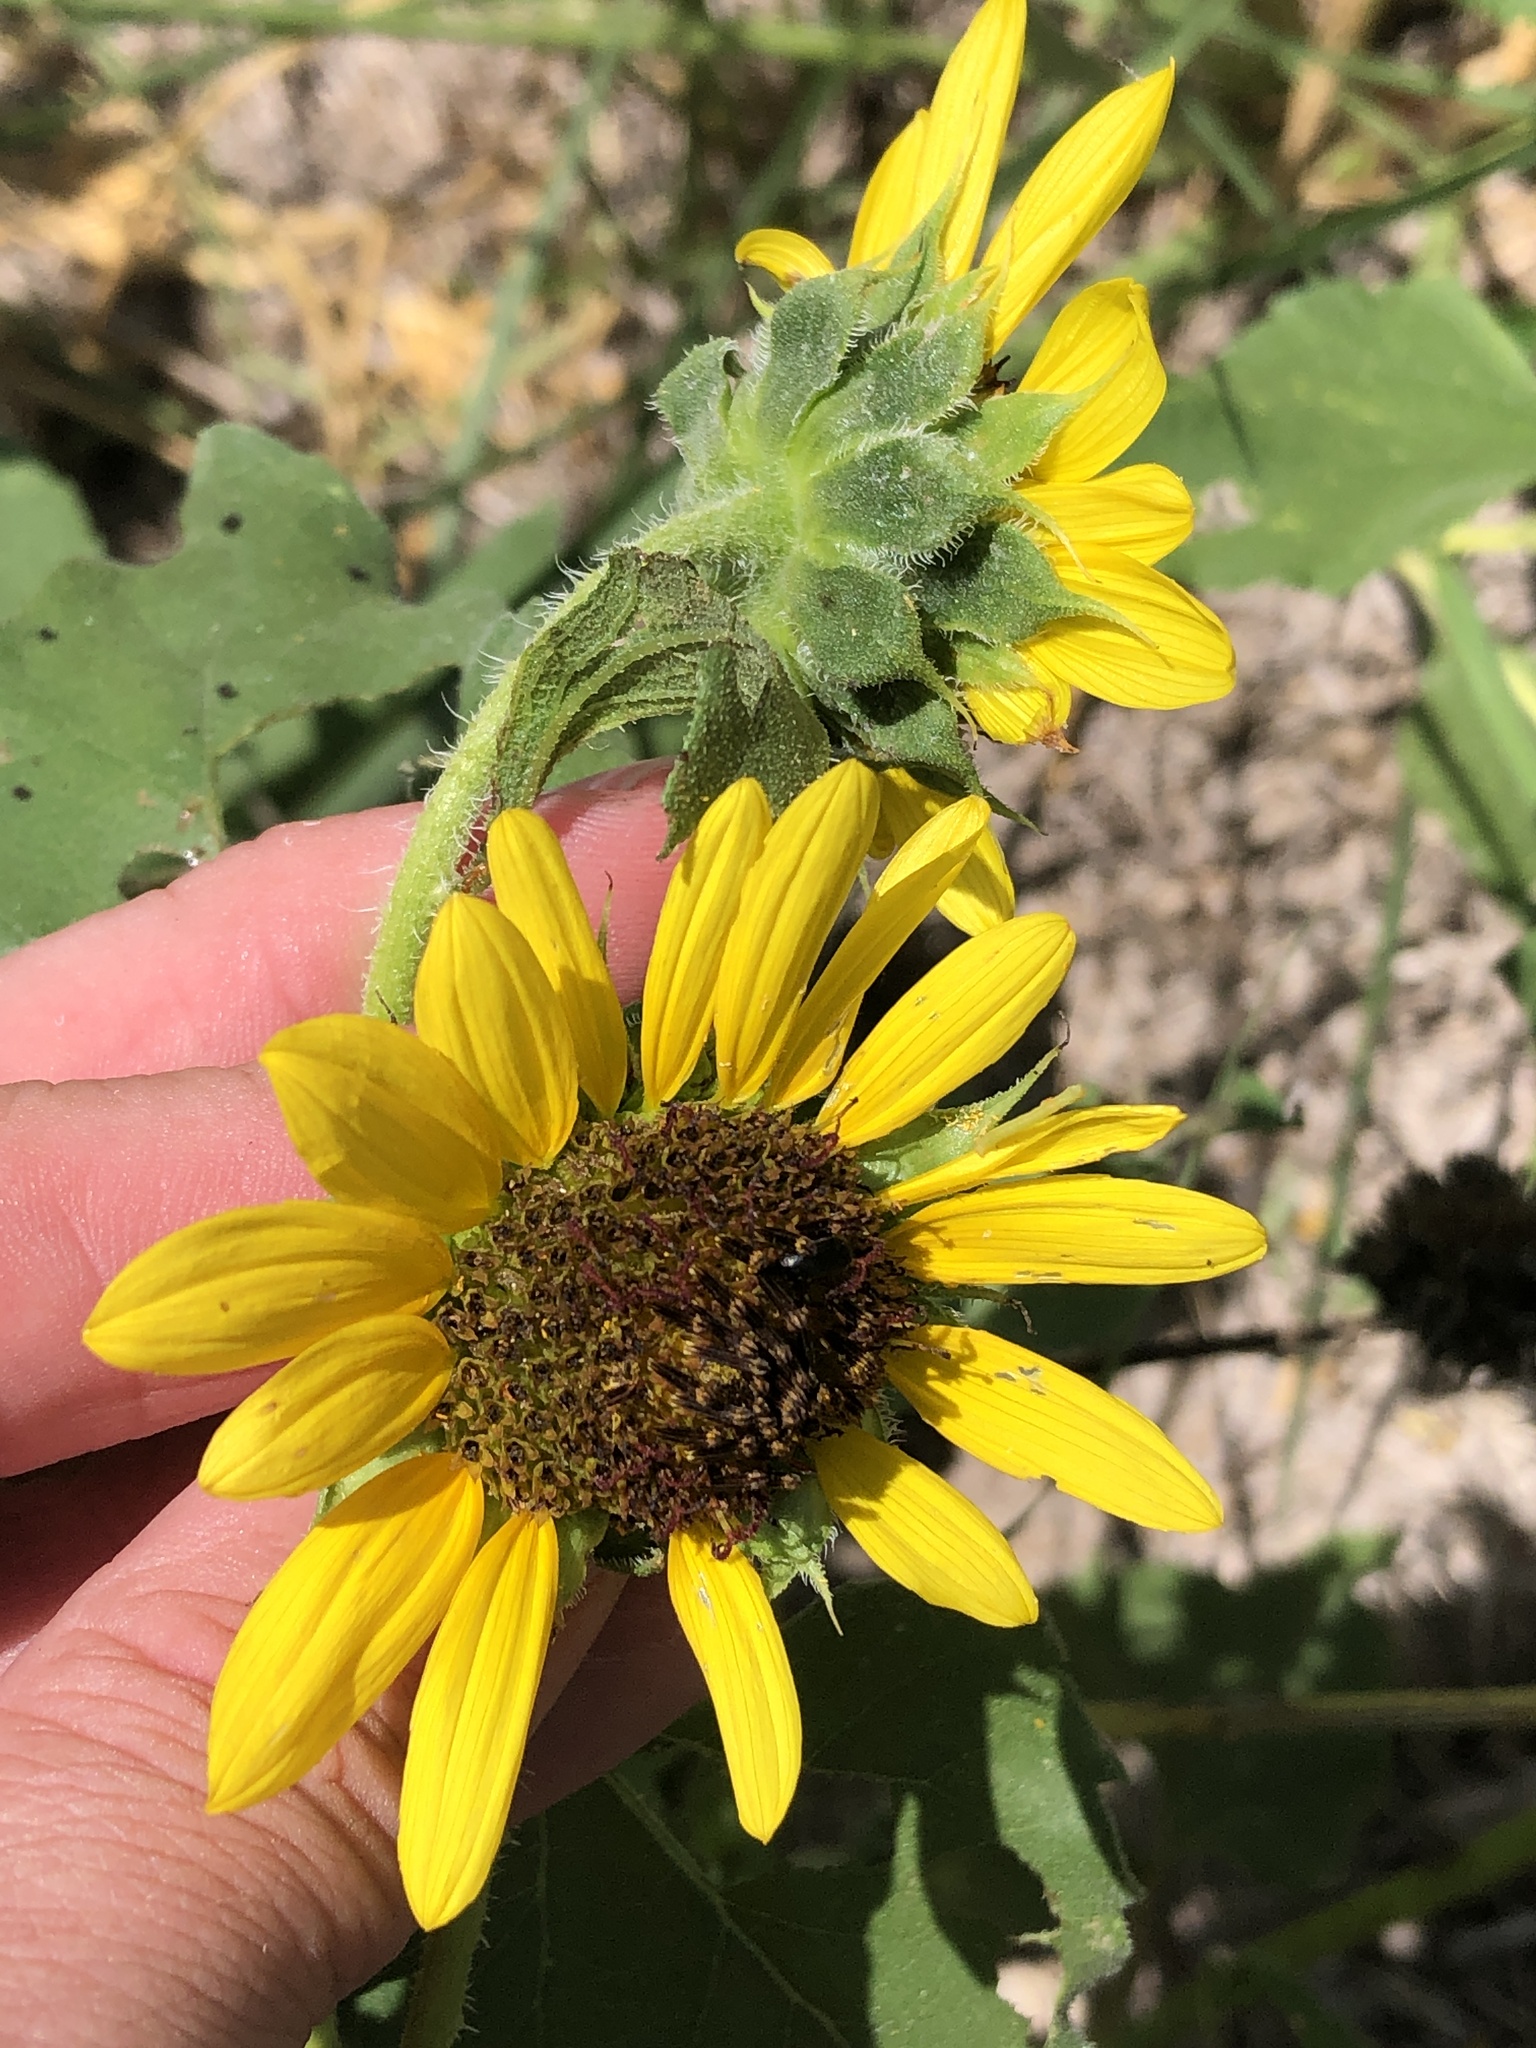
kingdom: Plantae
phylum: Tracheophyta
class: Magnoliopsida
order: Asterales
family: Asteraceae
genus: Helianthus
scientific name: Helianthus annuus
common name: Sunflower
